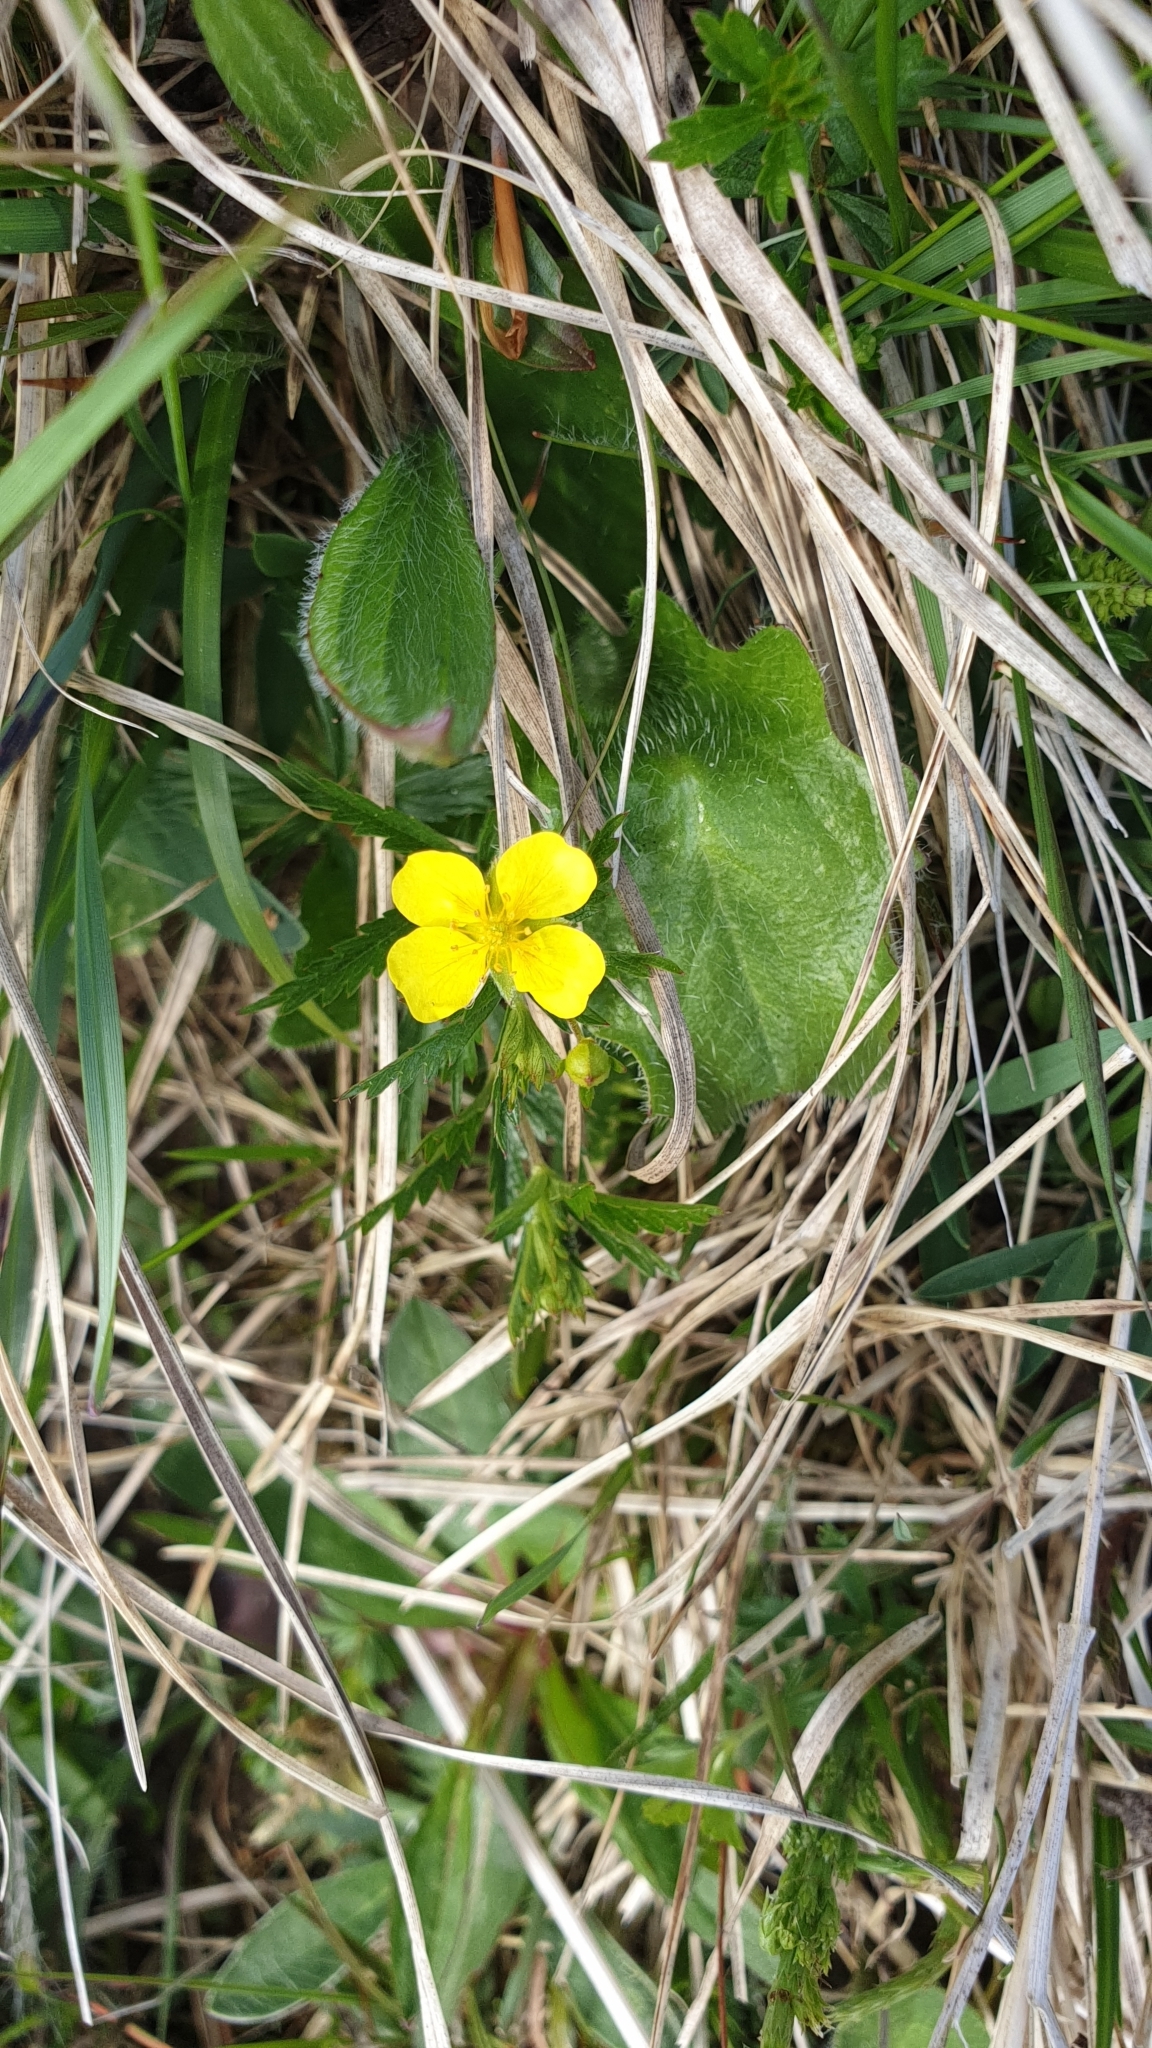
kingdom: Plantae
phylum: Tracheophyta
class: Magnoliopsida
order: Rosales
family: Rosaceae
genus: Potentilla
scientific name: Potentilla erecta
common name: Tormentil
